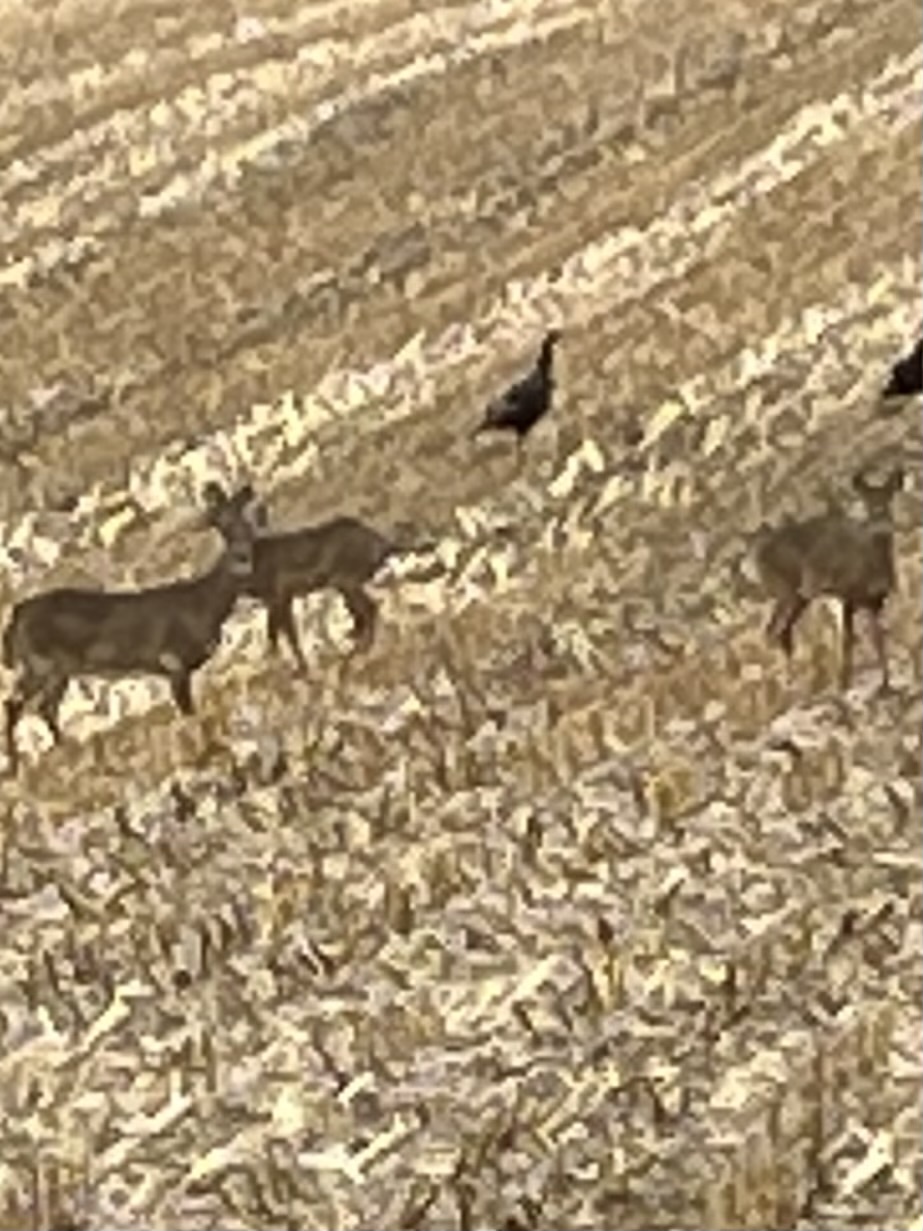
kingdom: Animalia
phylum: Chordata
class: Mammalia
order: Artiodactyla
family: Cervidae
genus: Odocoileus
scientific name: Odocoileus virginianus
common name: White-tailed deer
